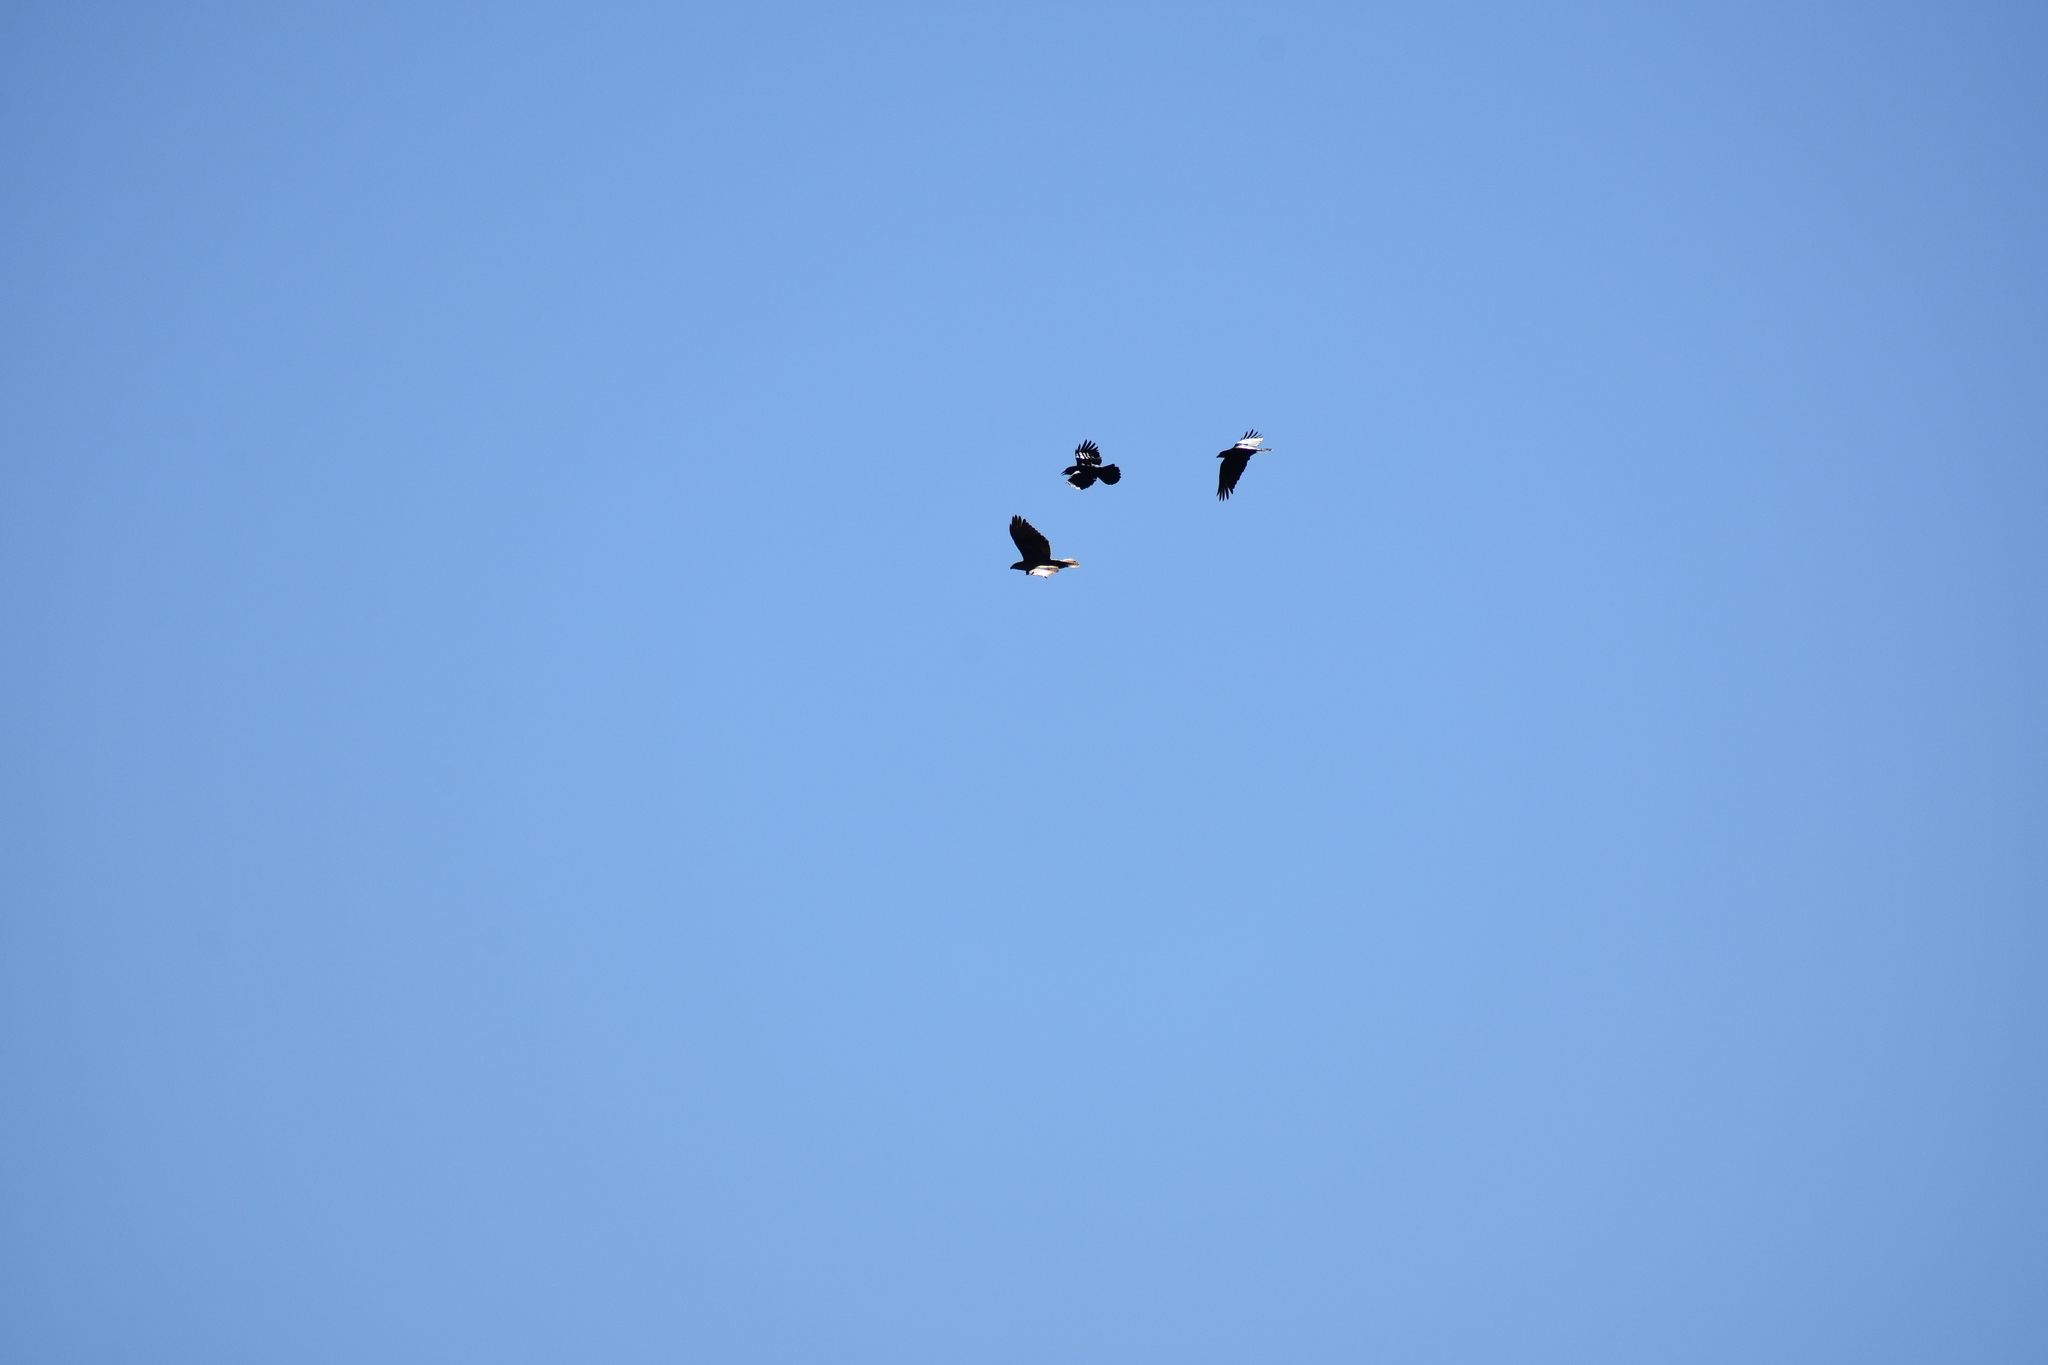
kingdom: Animalia
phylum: Chordata
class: Aves
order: Accipitriformes
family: Accipitridae
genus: Buteo
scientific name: Buteo jamaicensis
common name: Red-tailed hawk
